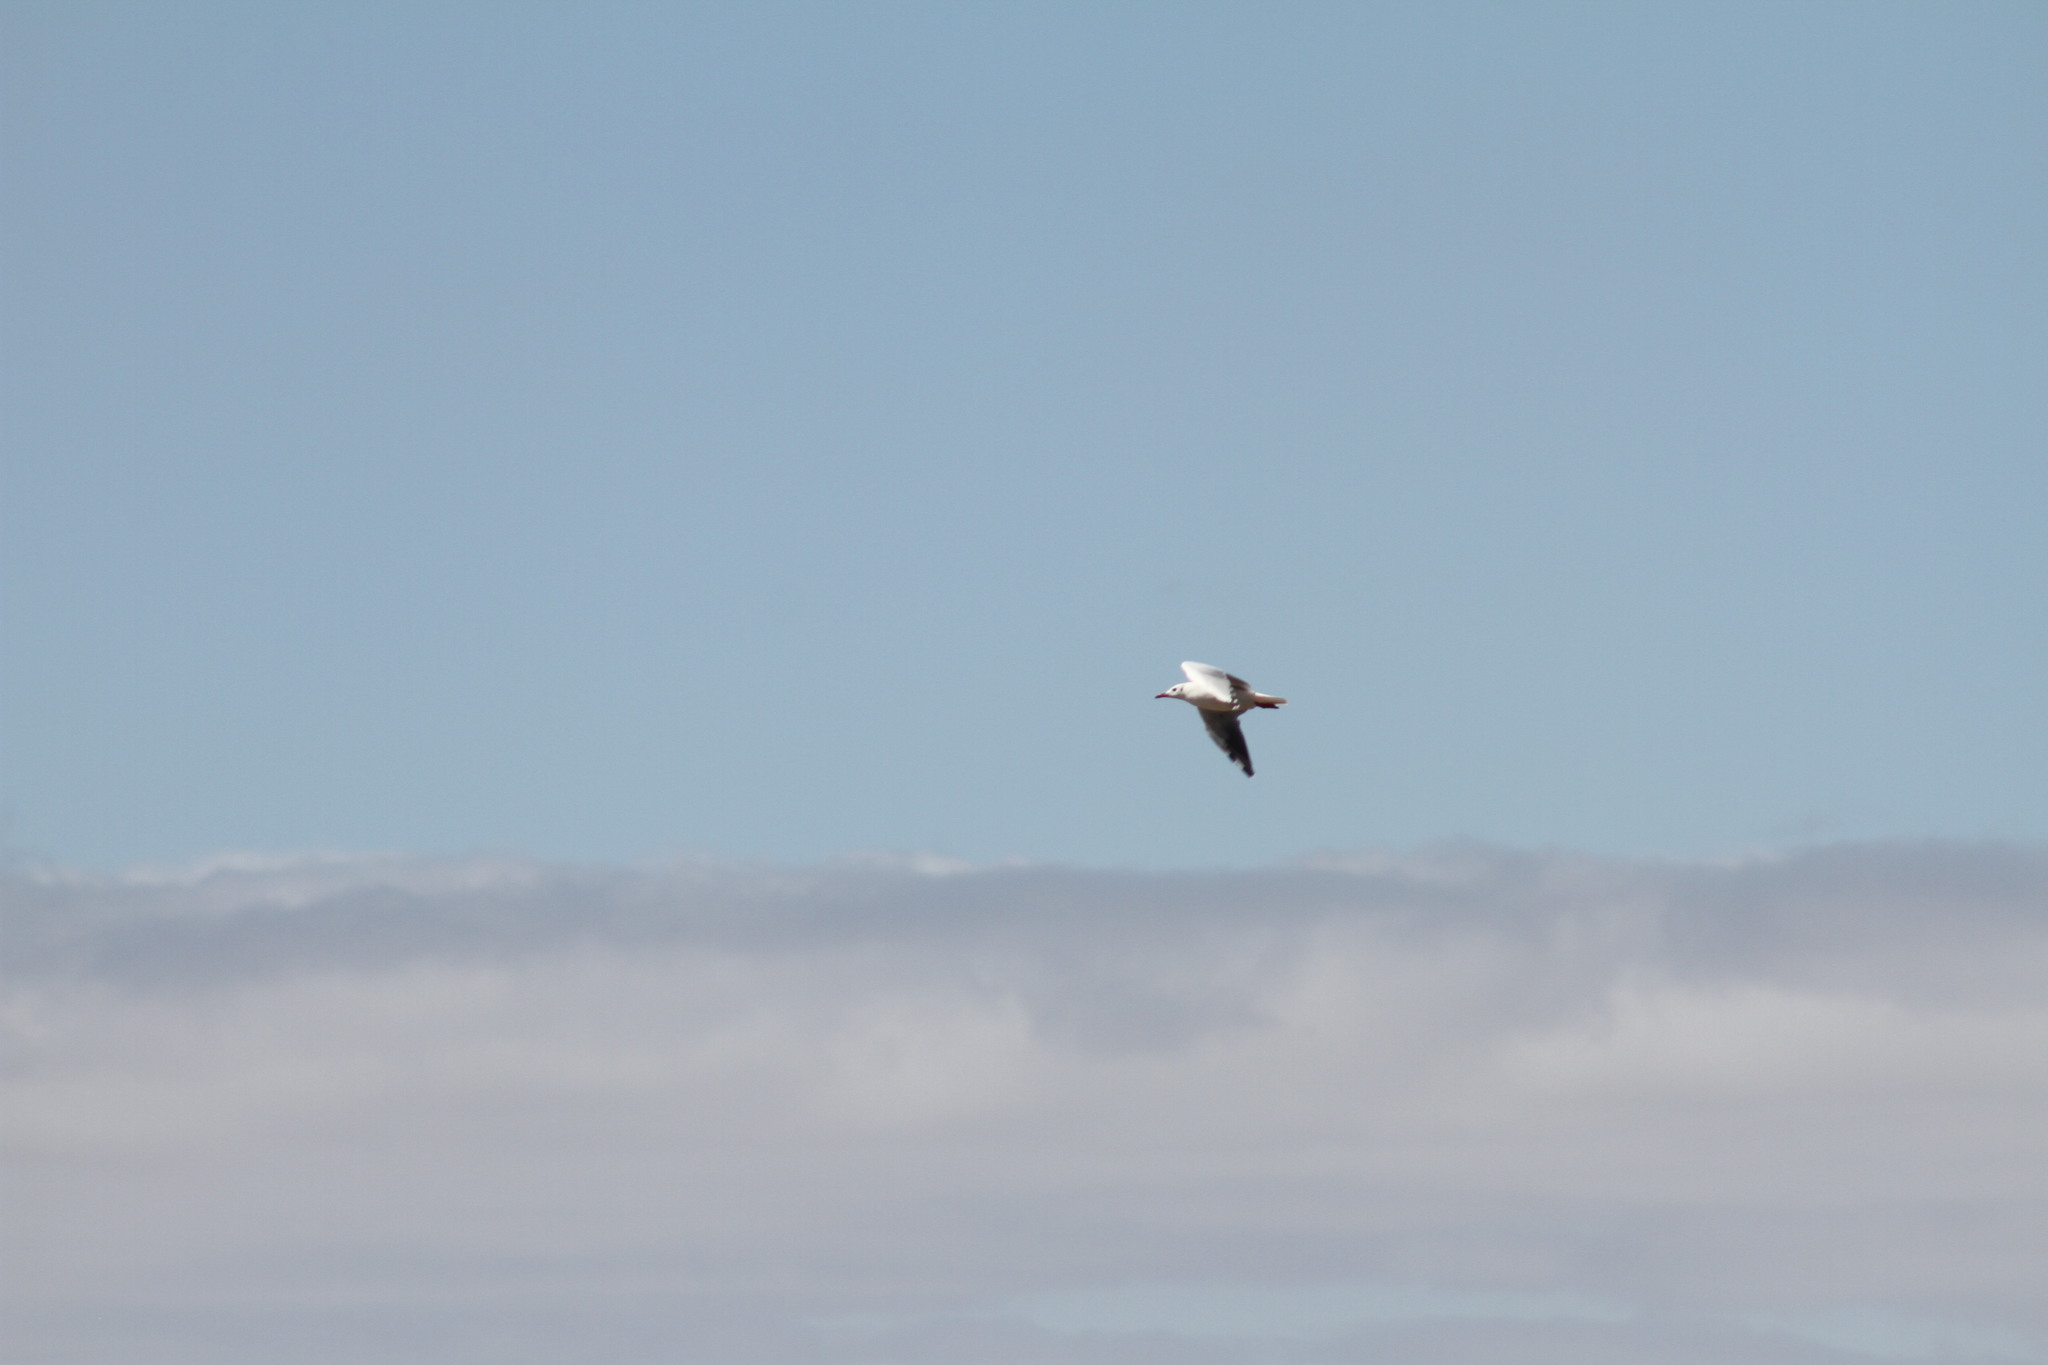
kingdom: Animalia
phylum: Chordata
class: Aves
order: Charadriiformes
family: Laridae
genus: Chroicocephalus
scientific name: Chroicocephalus maculipennis
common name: Brown-hooded gull
